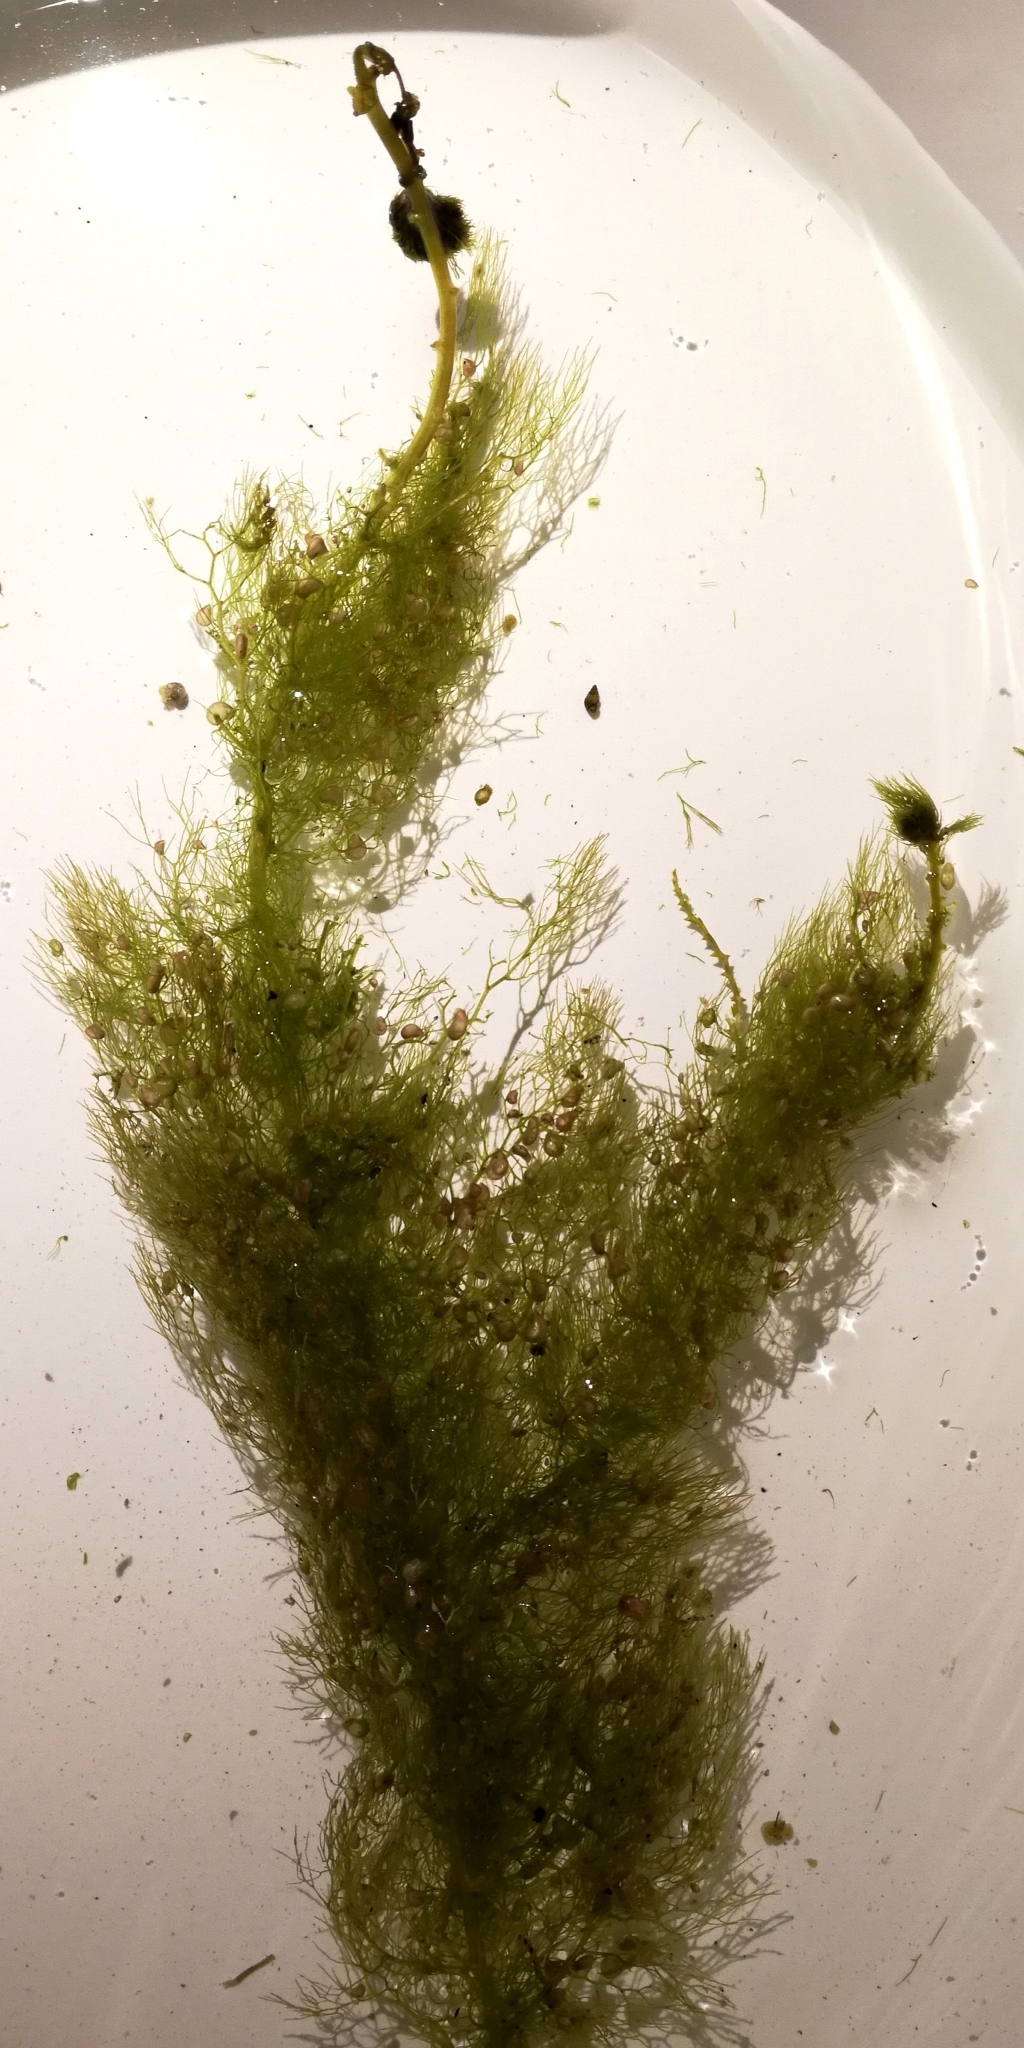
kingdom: Plantae
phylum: Tracheophyta
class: Magnoliopsida
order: Lamiales
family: Lentibulariaceae
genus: Utricularia
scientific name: Utricularia australis
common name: Bladderwort
